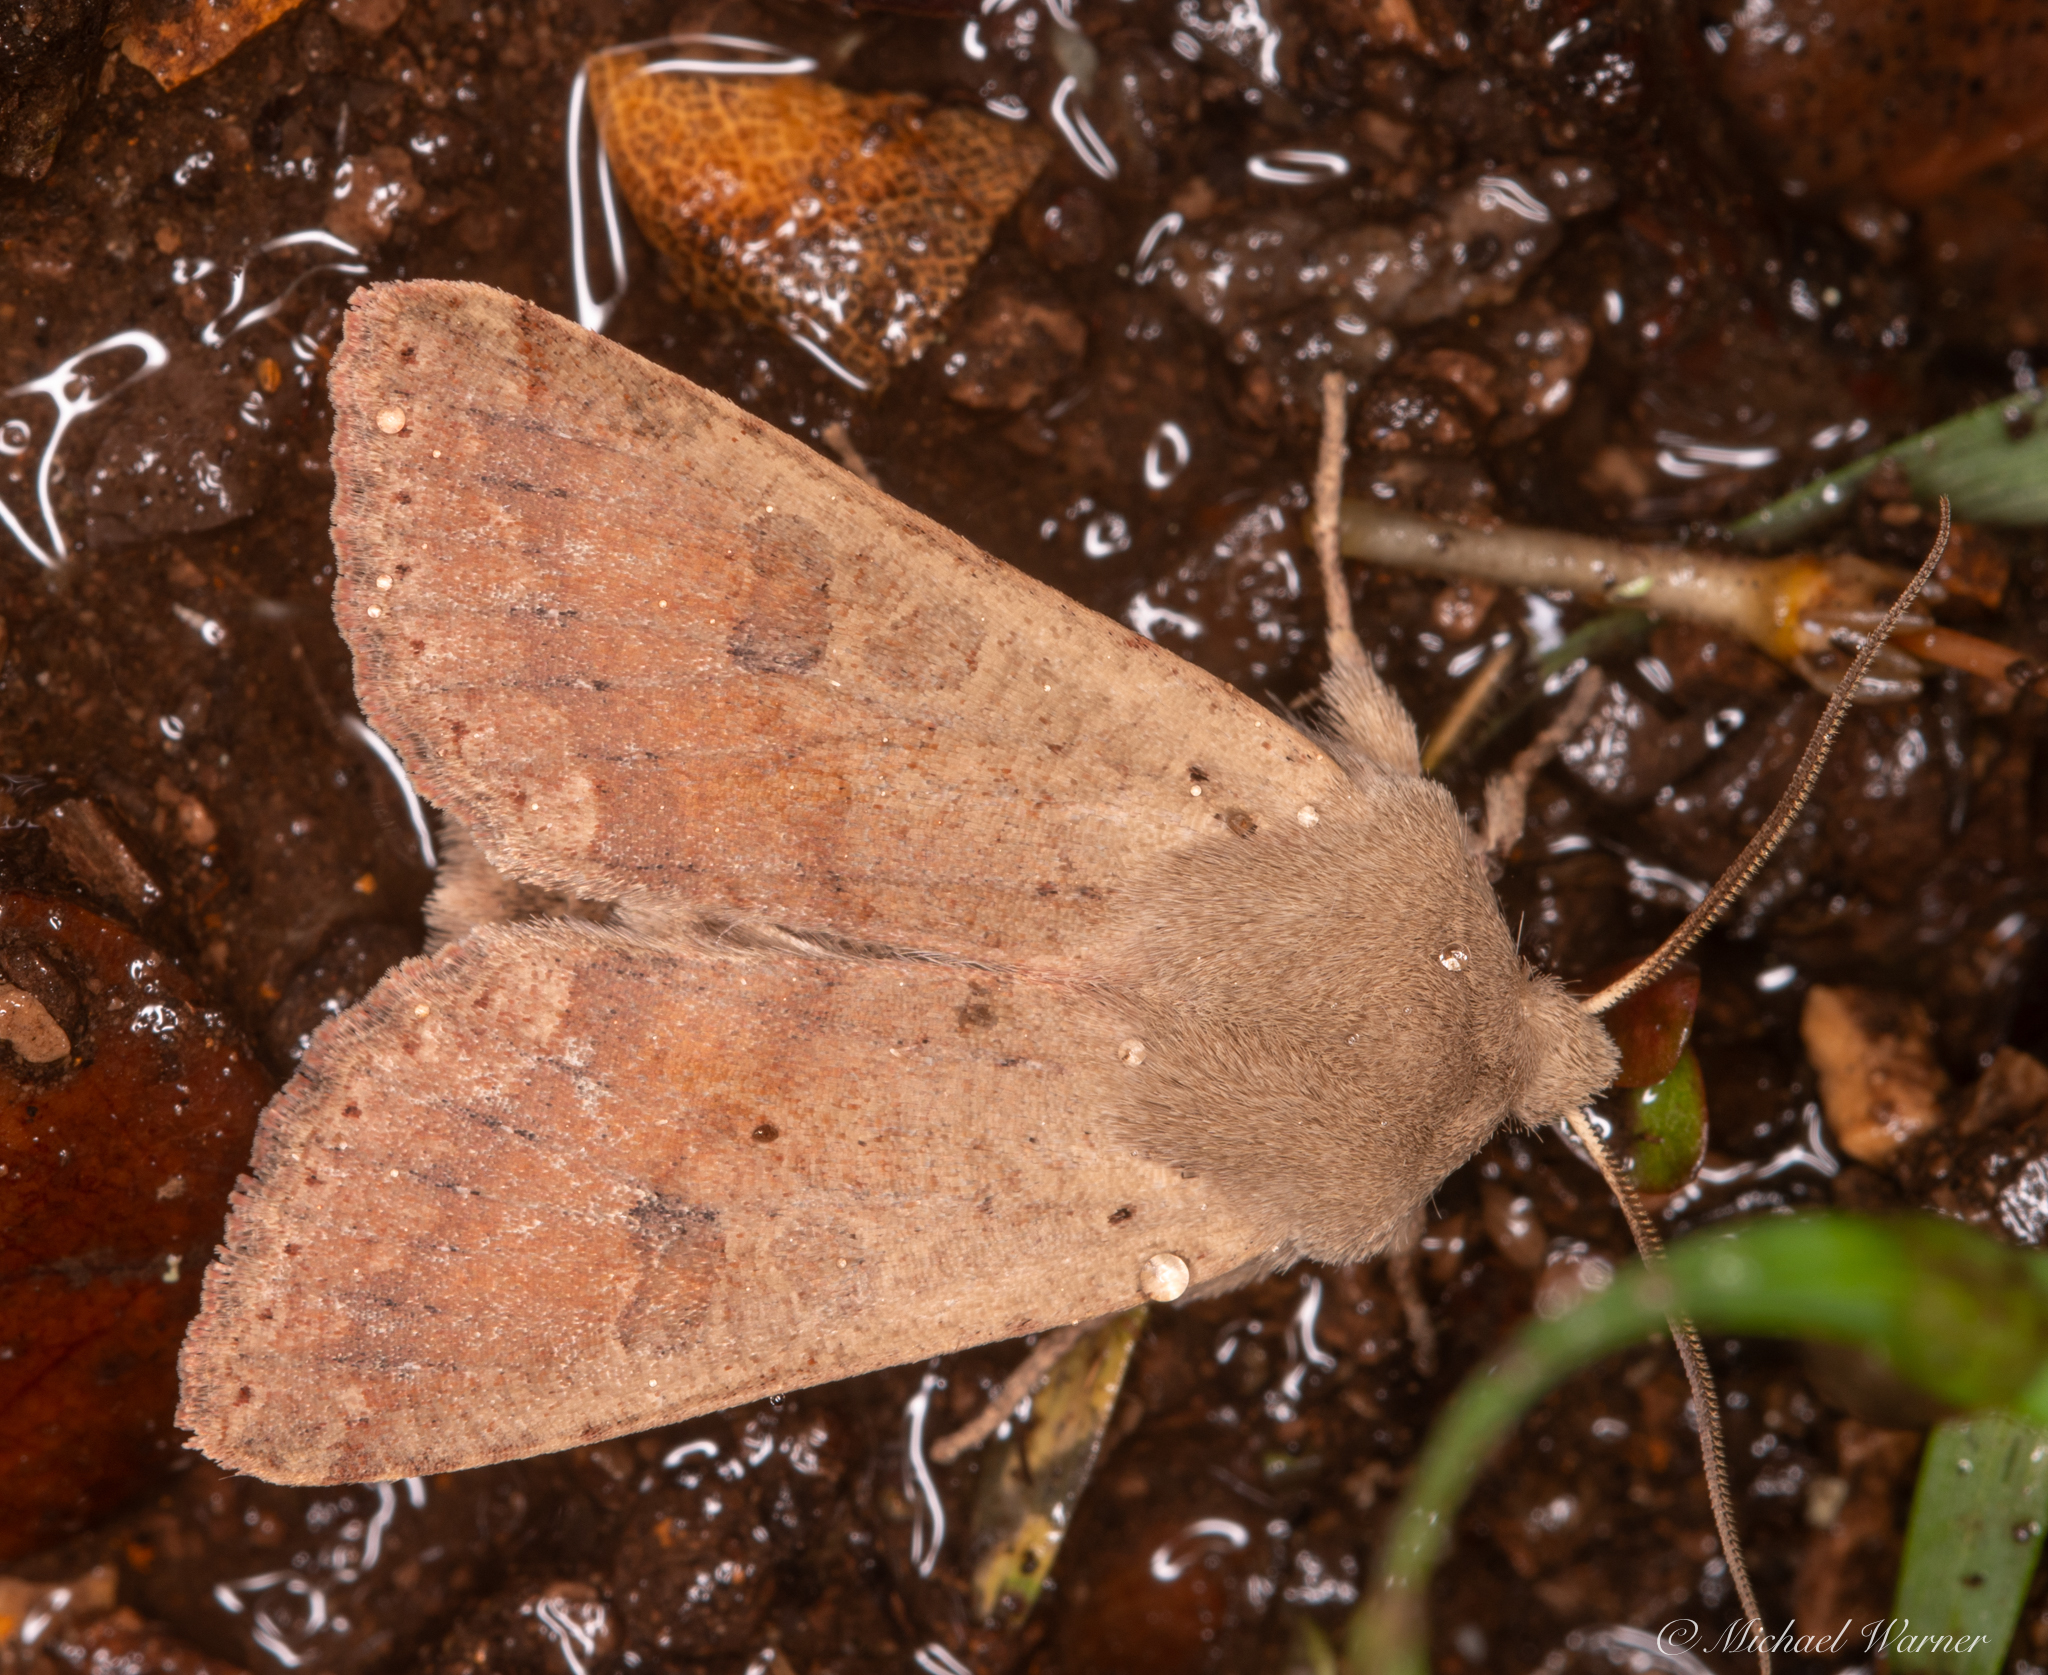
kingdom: Animalia
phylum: Arthropoda
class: Insecta
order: Lepidoptera
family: Noctuidae
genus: Orthosia
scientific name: Orthosia pacifica
